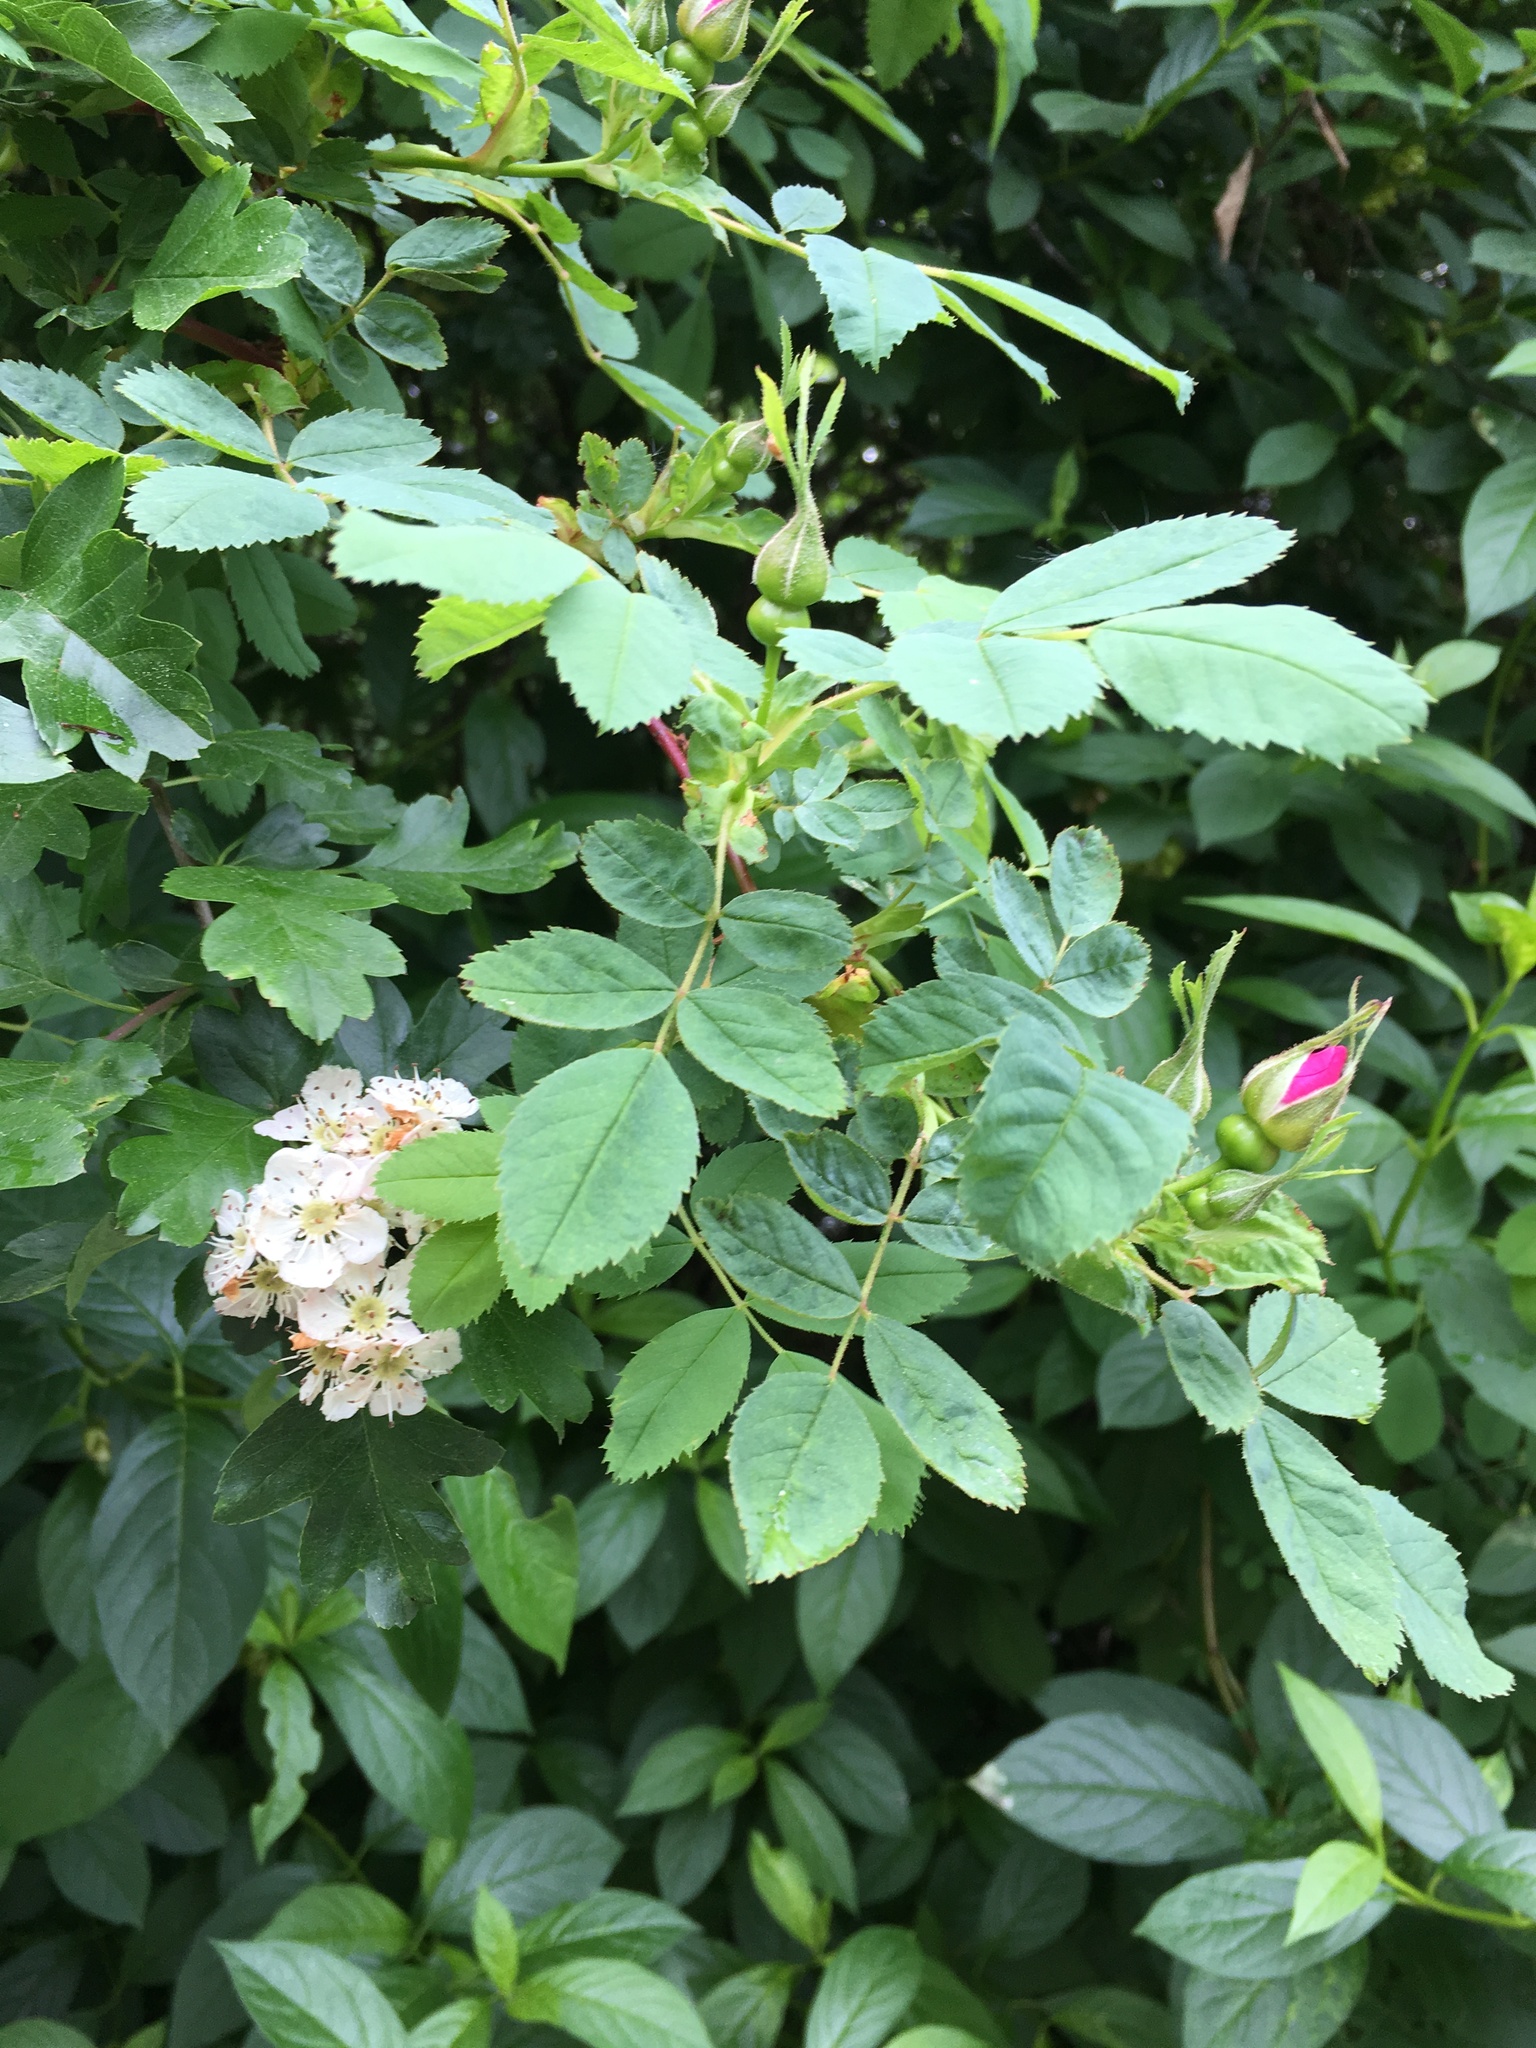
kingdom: Plantae
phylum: Tracheophyta
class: Magnoliopsida
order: Rosales
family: Rosaceae
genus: Rosa
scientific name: Rosa nutkana
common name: Nootka rose
